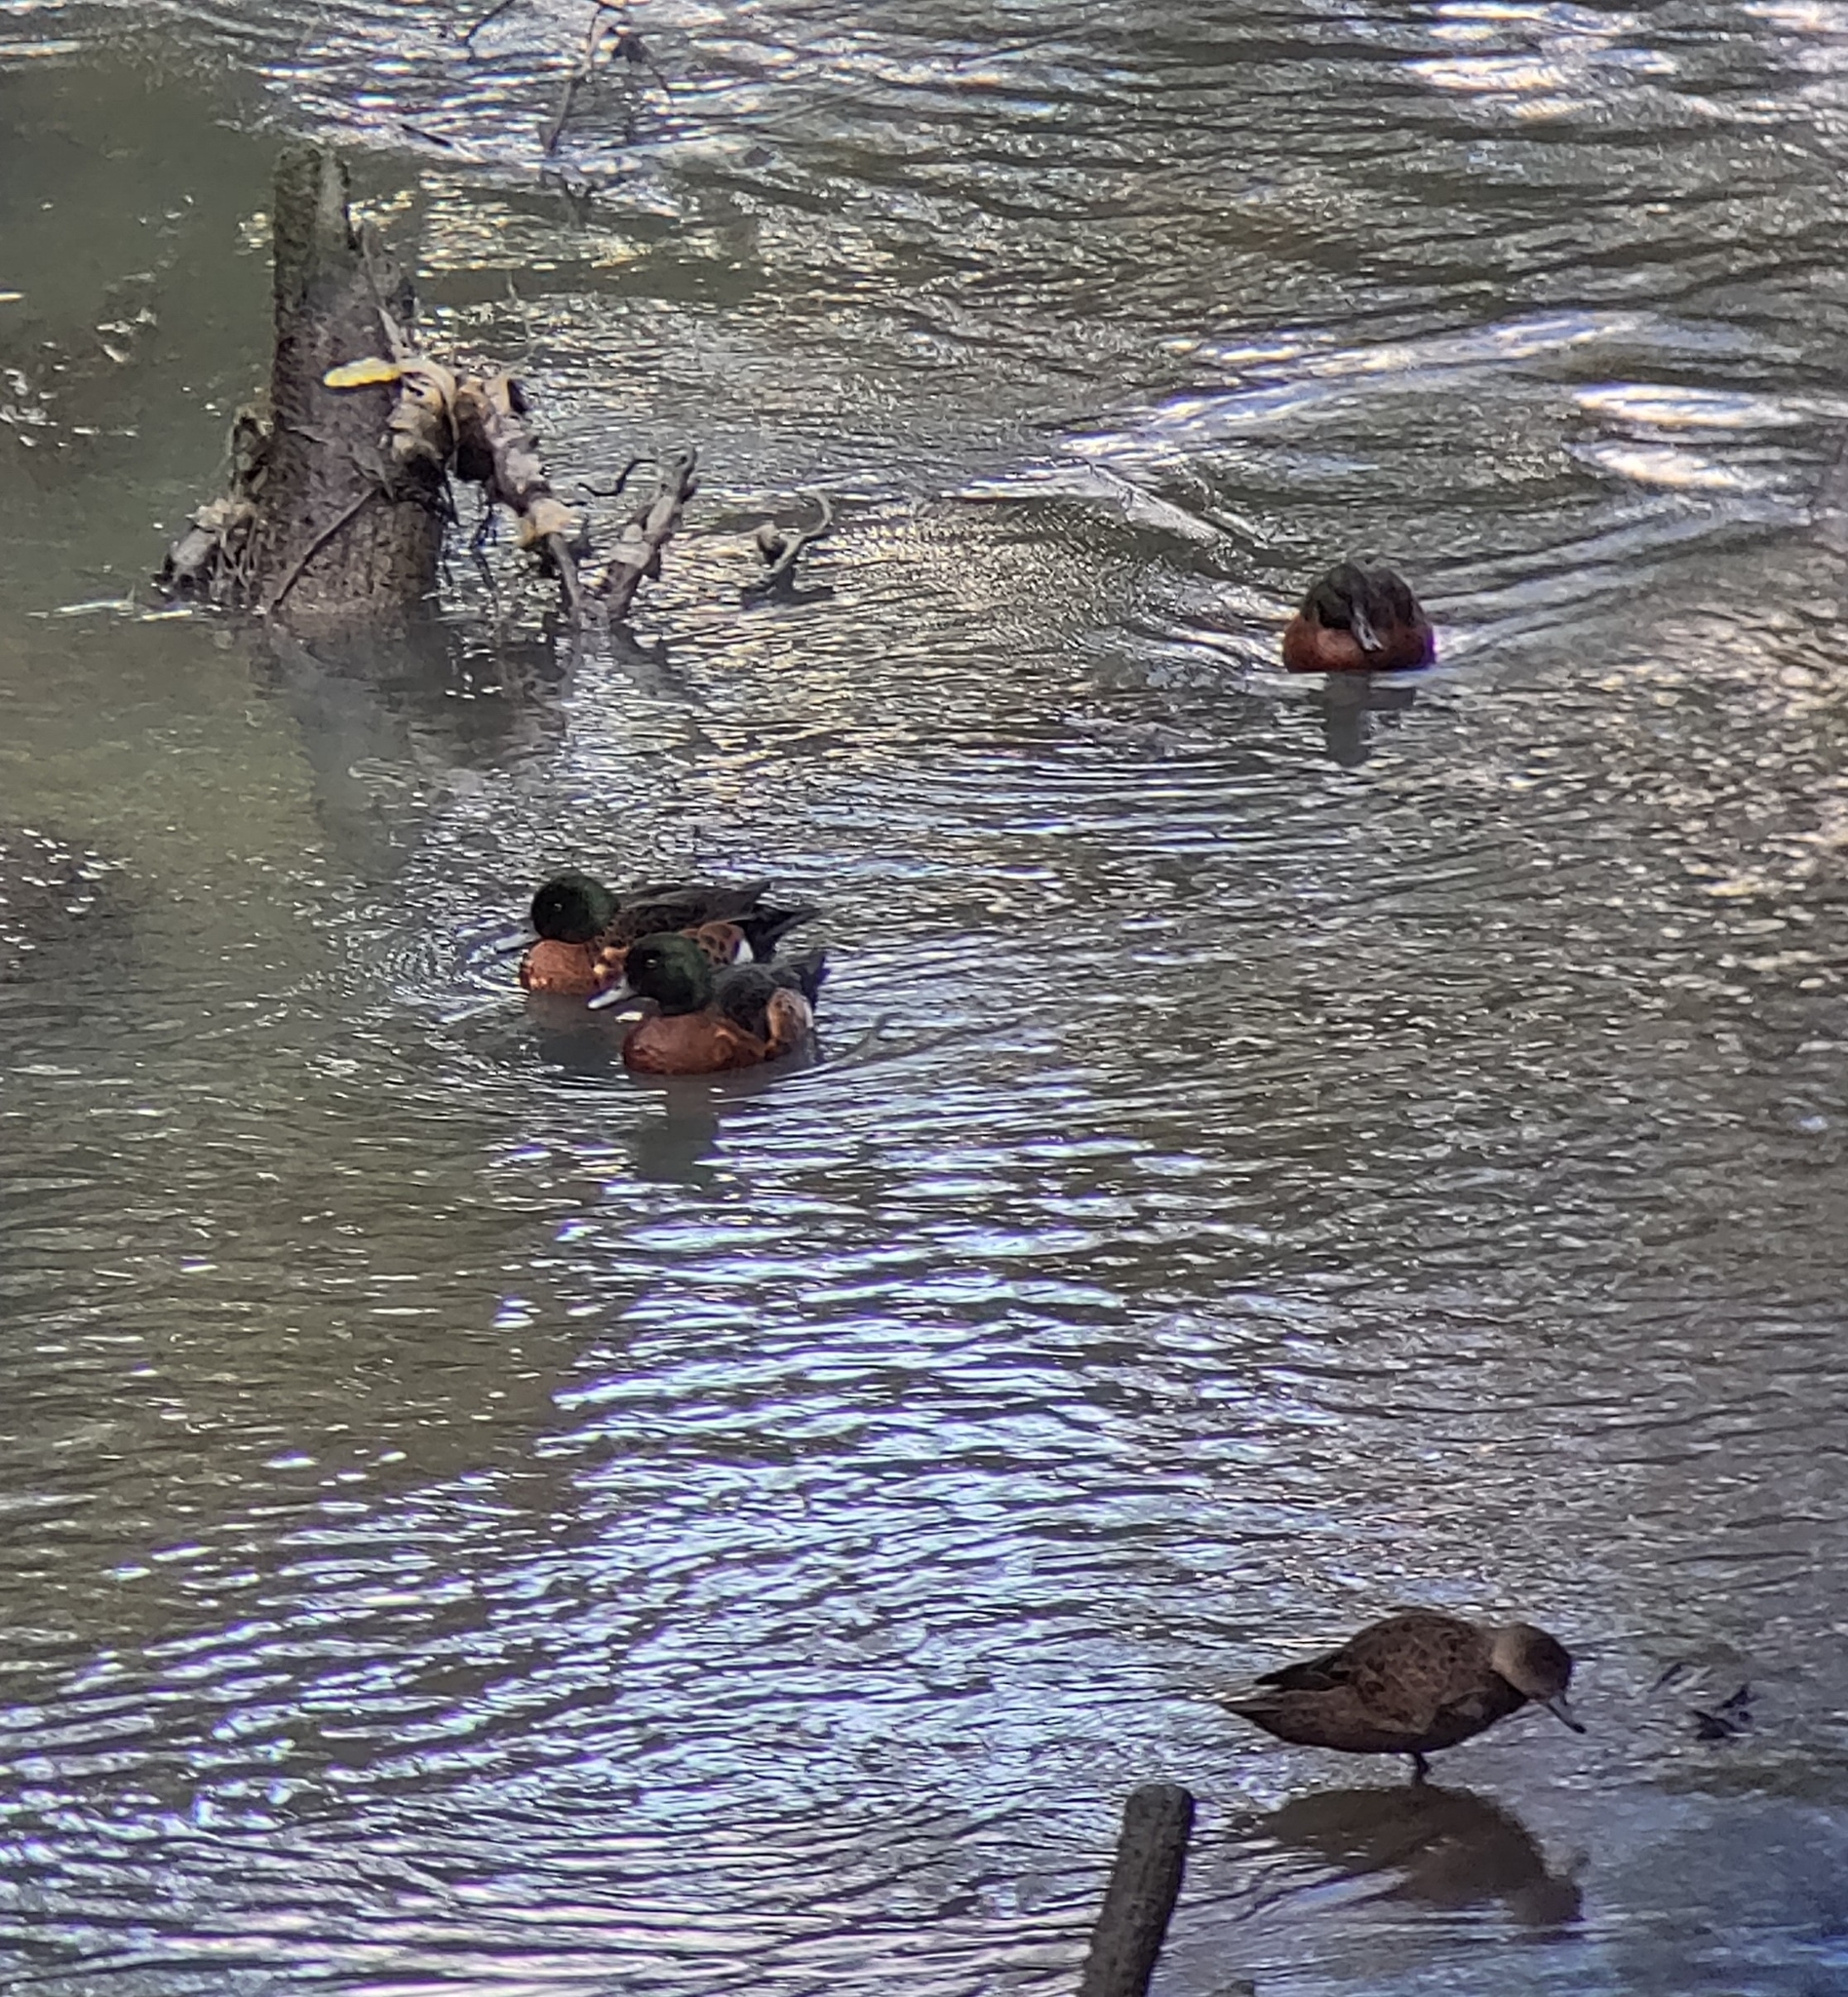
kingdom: Animalia
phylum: Chordata
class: Aves
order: Anseriformes
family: Anatidae
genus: Anas
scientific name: Anas castanea
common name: Chestnut teal
